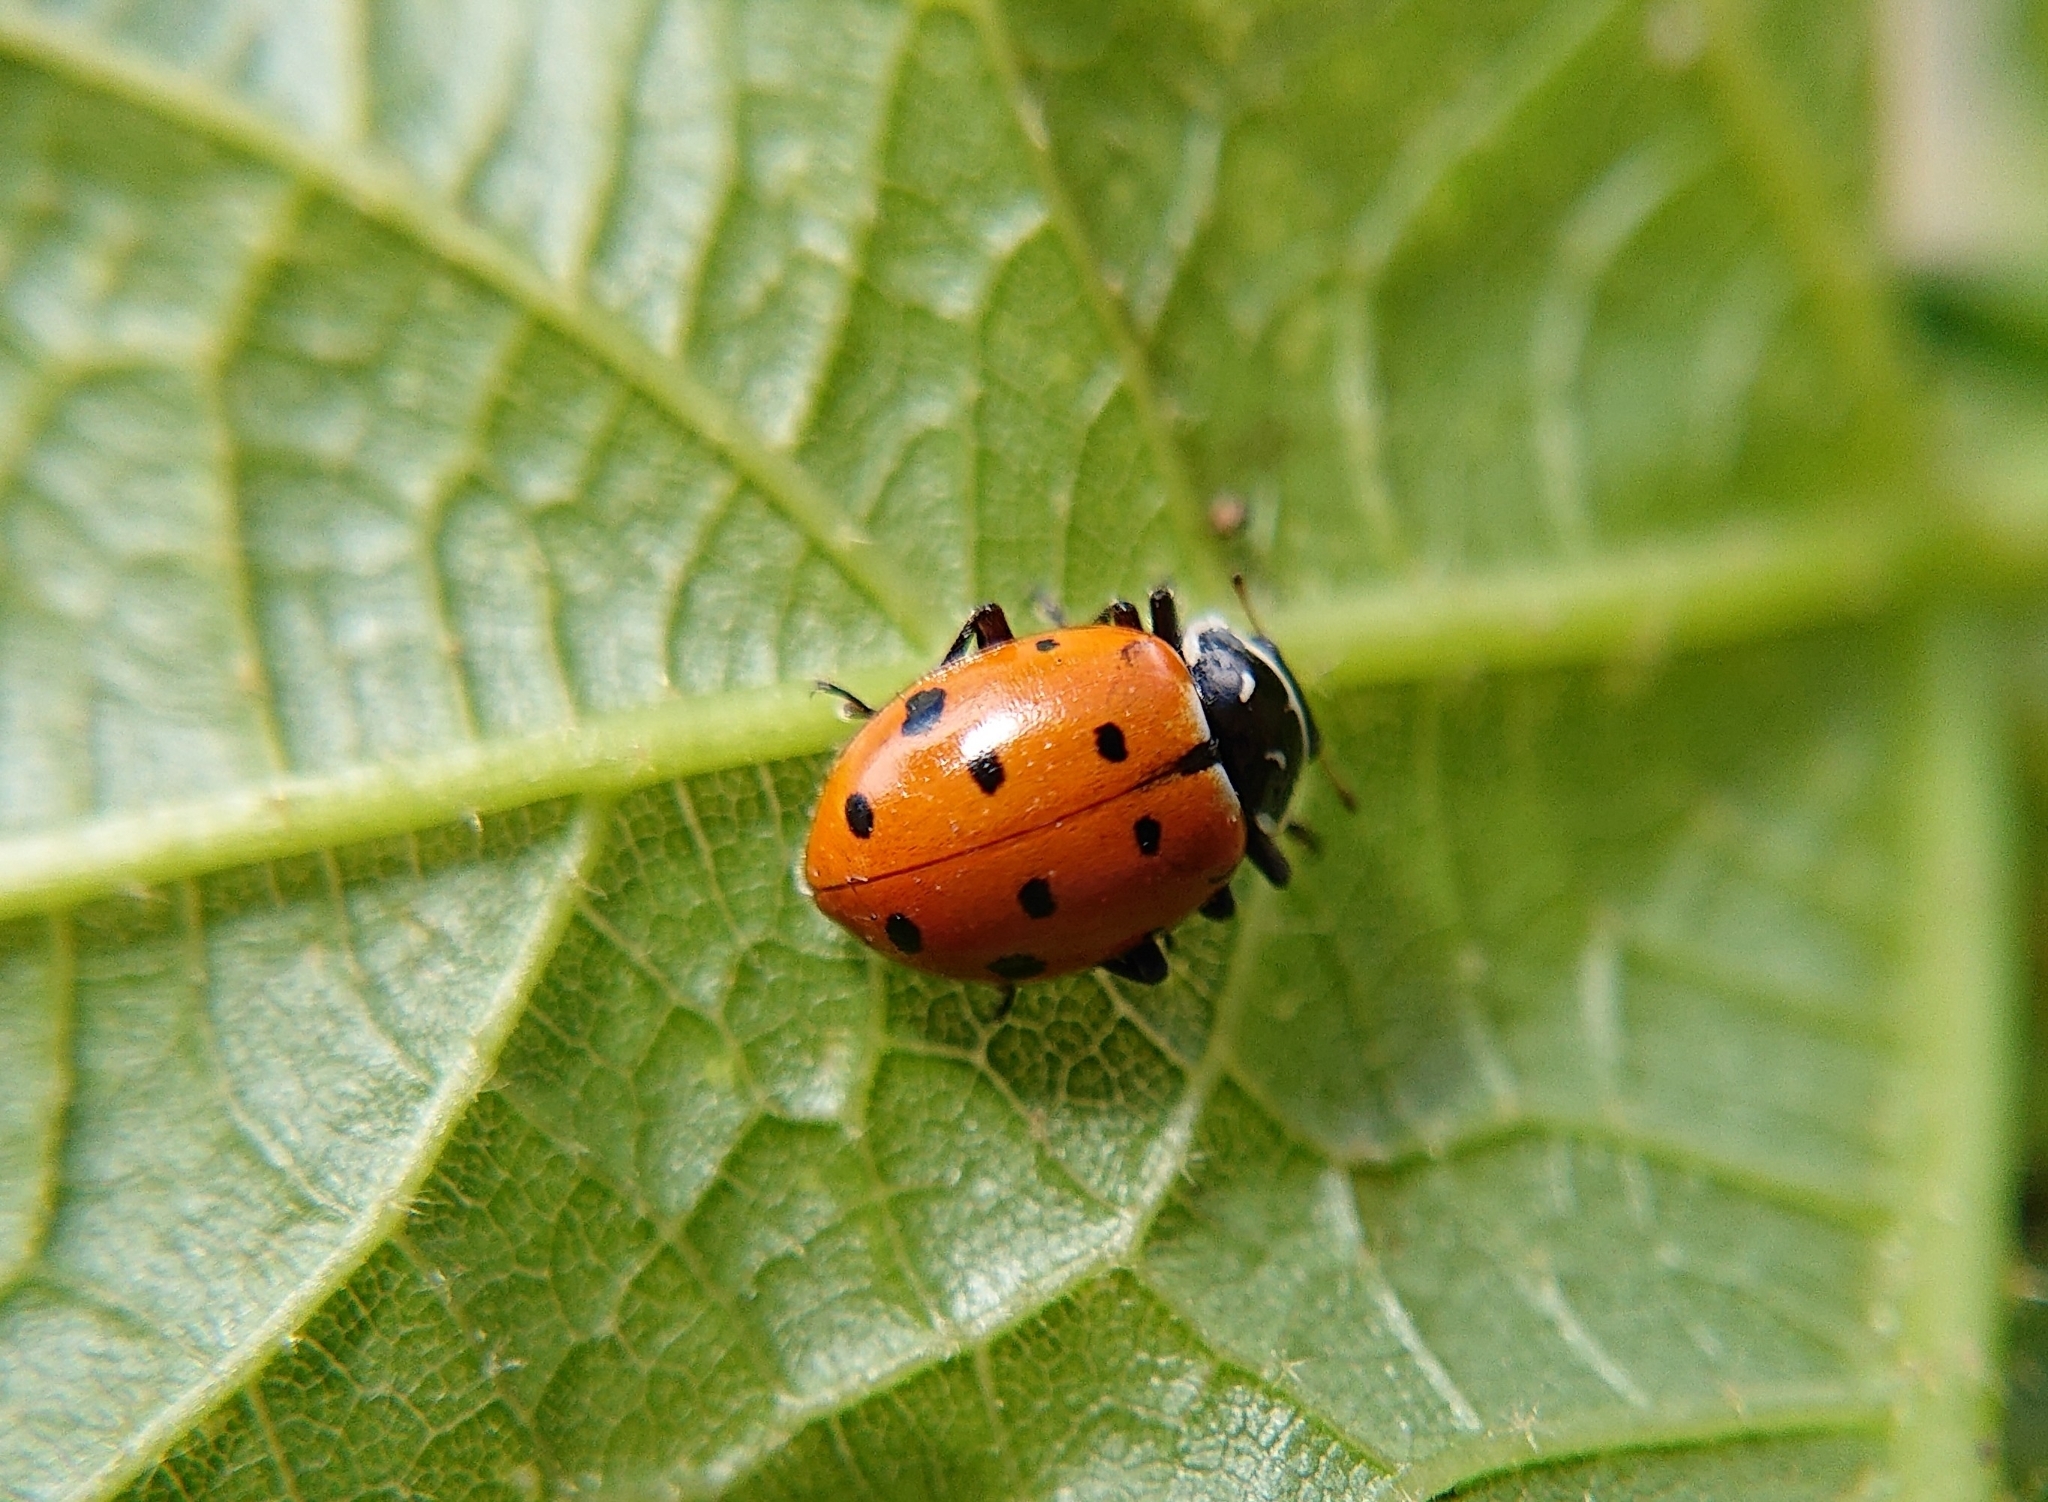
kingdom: Animalia
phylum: Arthropoda
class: Insecta
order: Coleoptera
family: Coccinellidae
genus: Hippodamia
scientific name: Hippodamia convergens
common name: Convergent lady beetle
